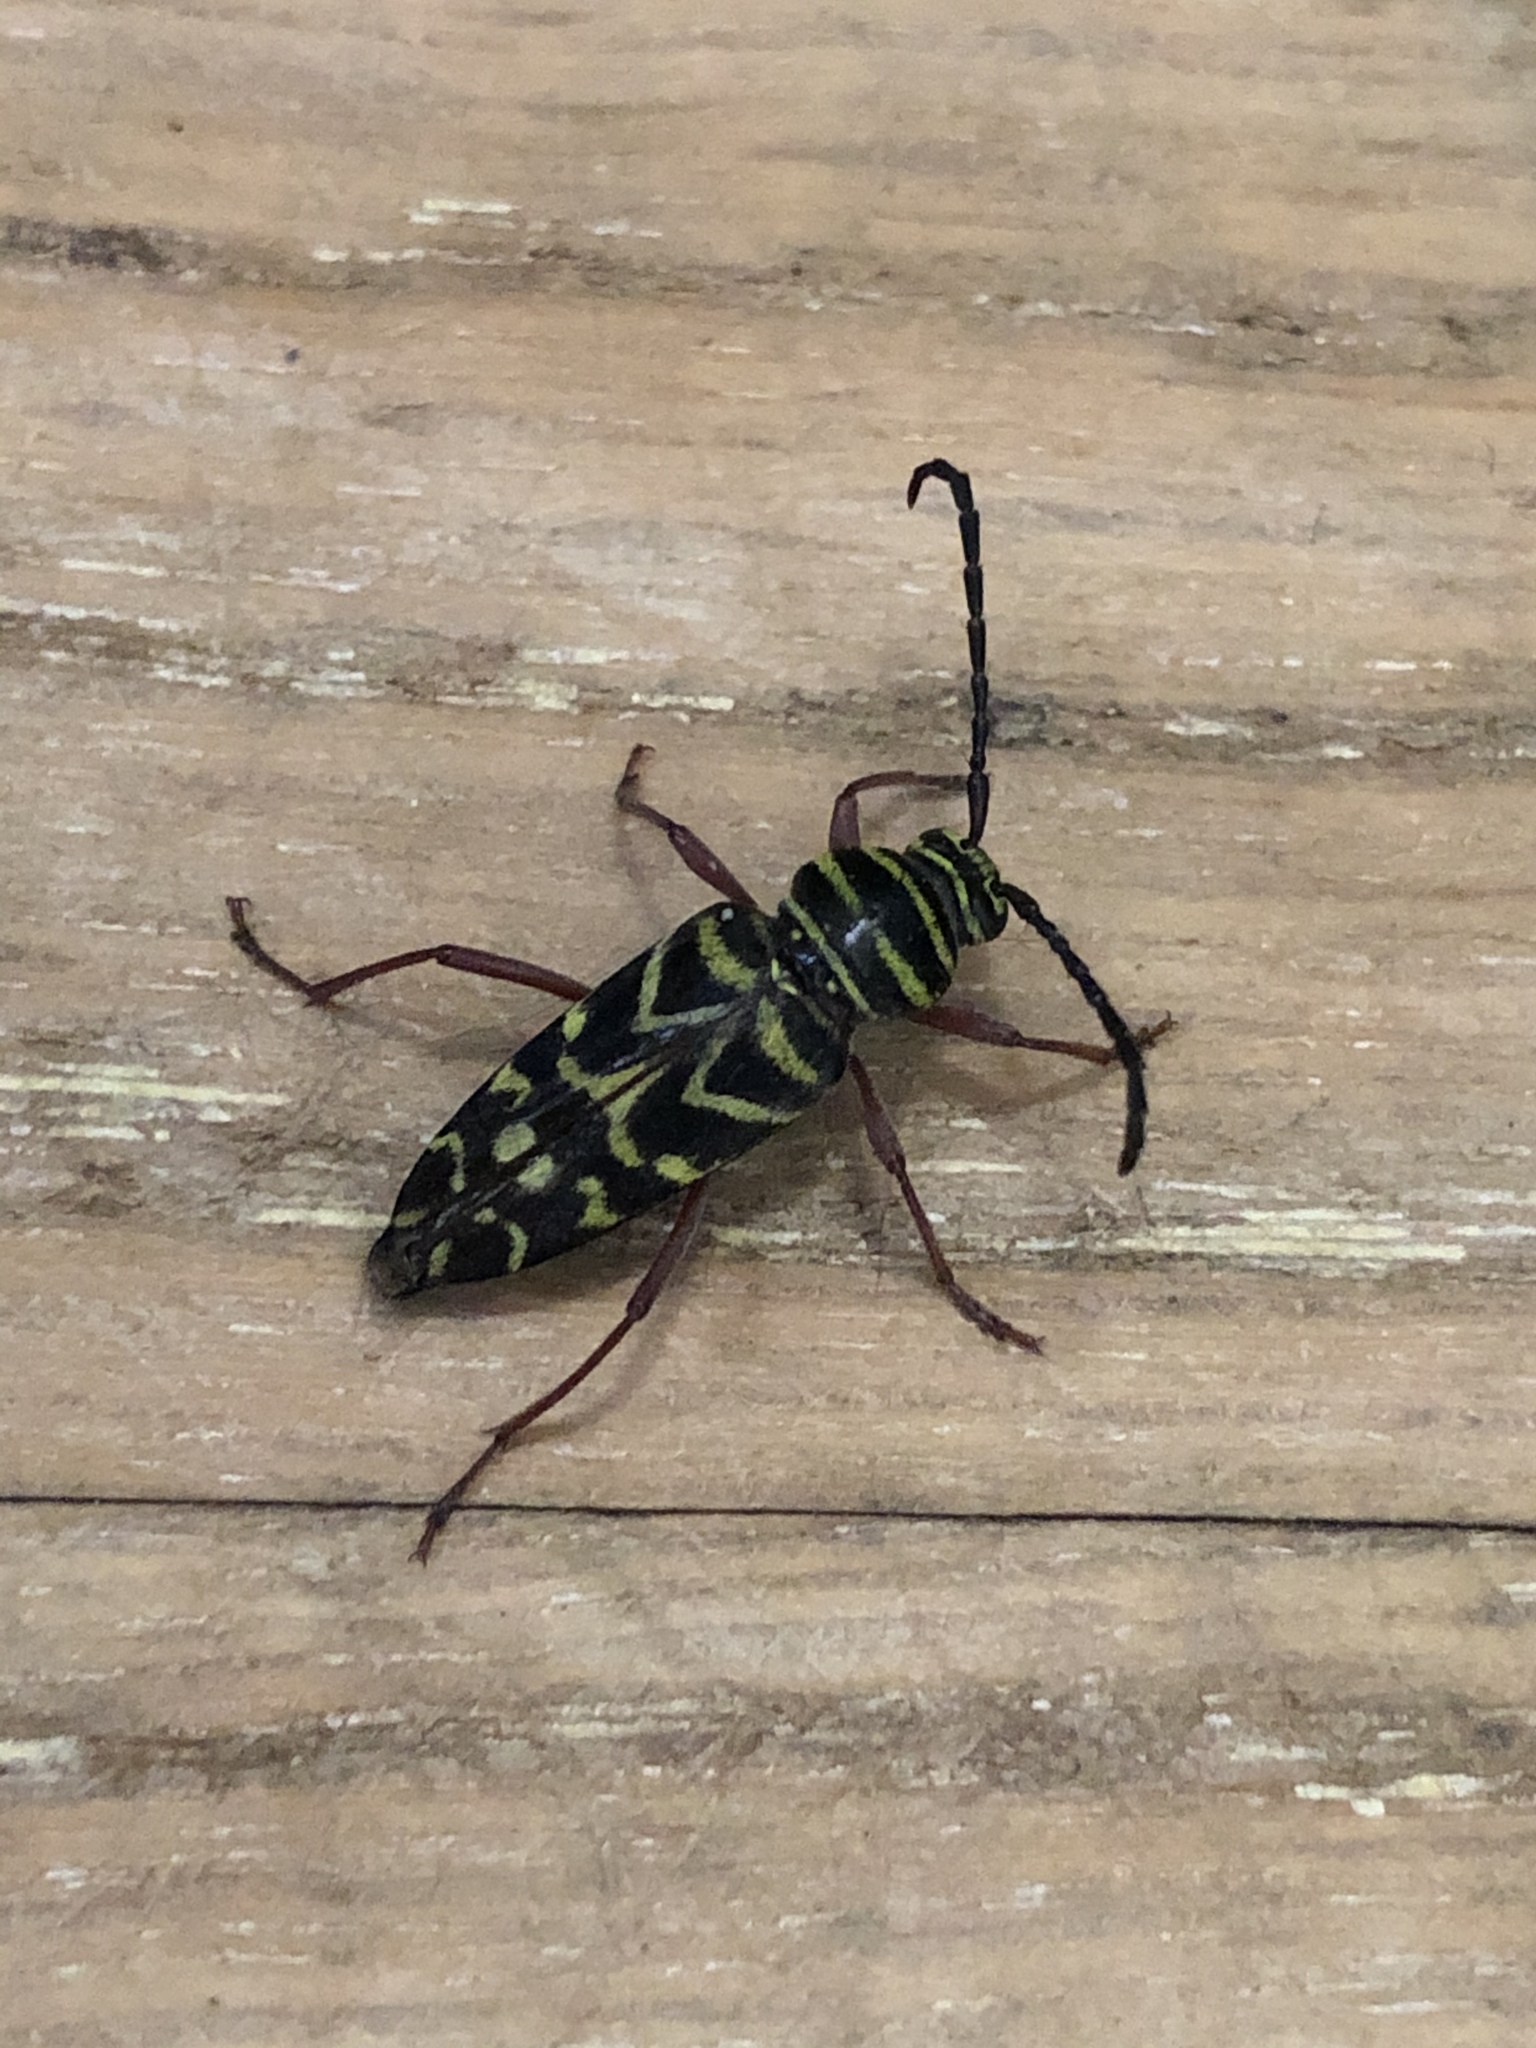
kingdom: Animalia
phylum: Arthropoda
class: Insecta
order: Coleoptera
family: Cerambycidae
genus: Megacyllene
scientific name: Megacyllene caryae
